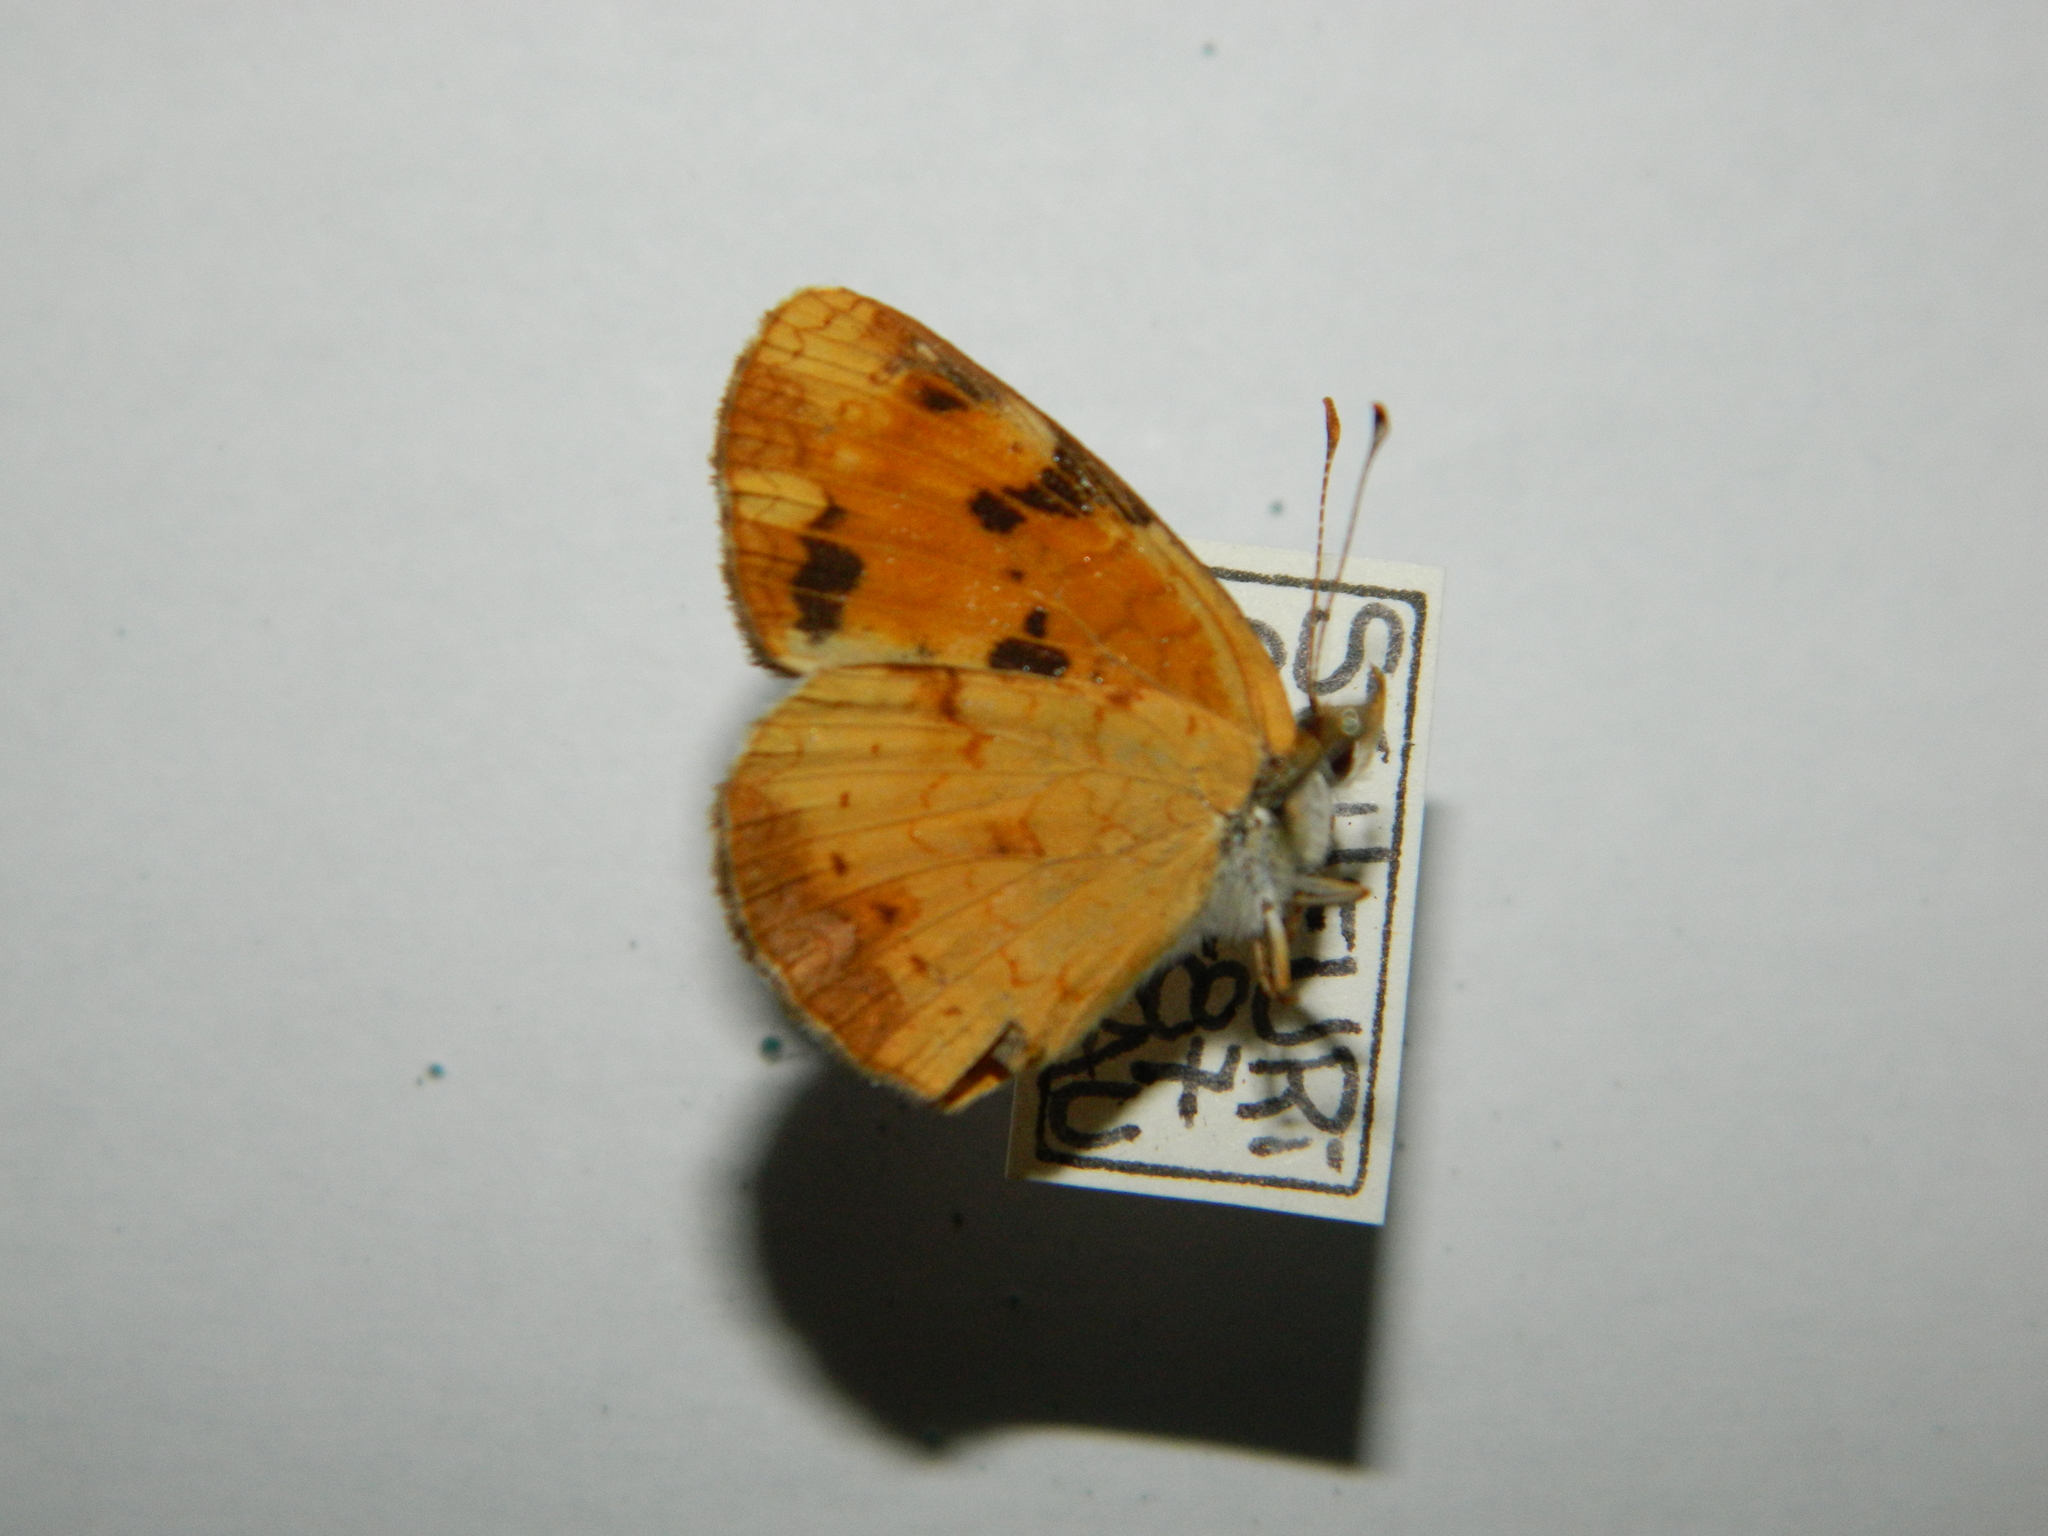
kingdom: Animalia
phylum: Arthropoda
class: Insecta
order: Lepidoptera
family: Nymphalidae
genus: Phyciodes
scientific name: Phyciodes tharos
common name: Pearl crescent
